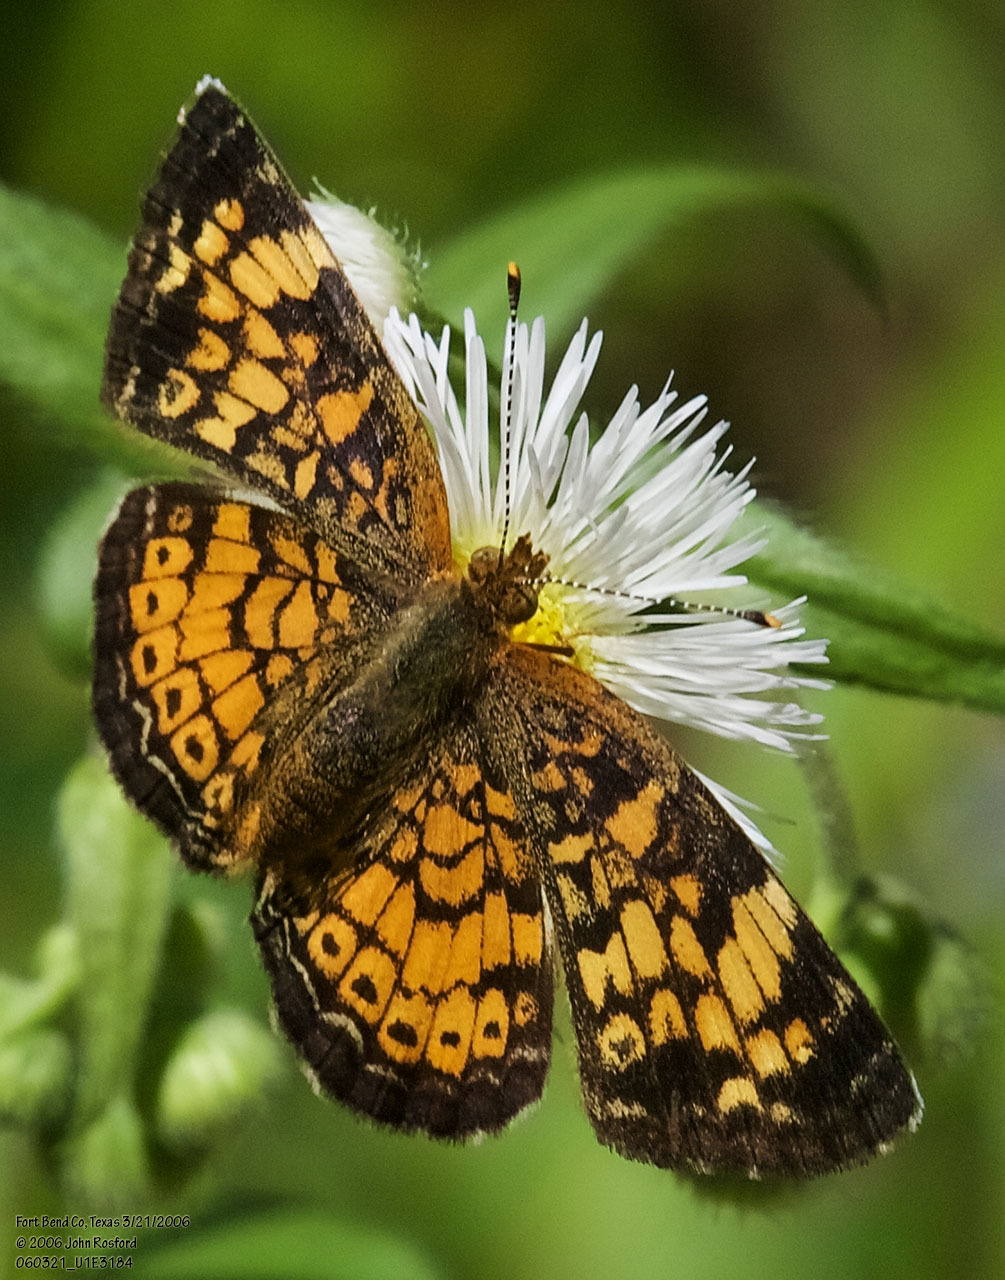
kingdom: Animalia
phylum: Arthropoda
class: Insecta
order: Lepidoptera
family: Nymphalidae
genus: Phyciodes
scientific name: Phyciodes tharos
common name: Pearl crescent
